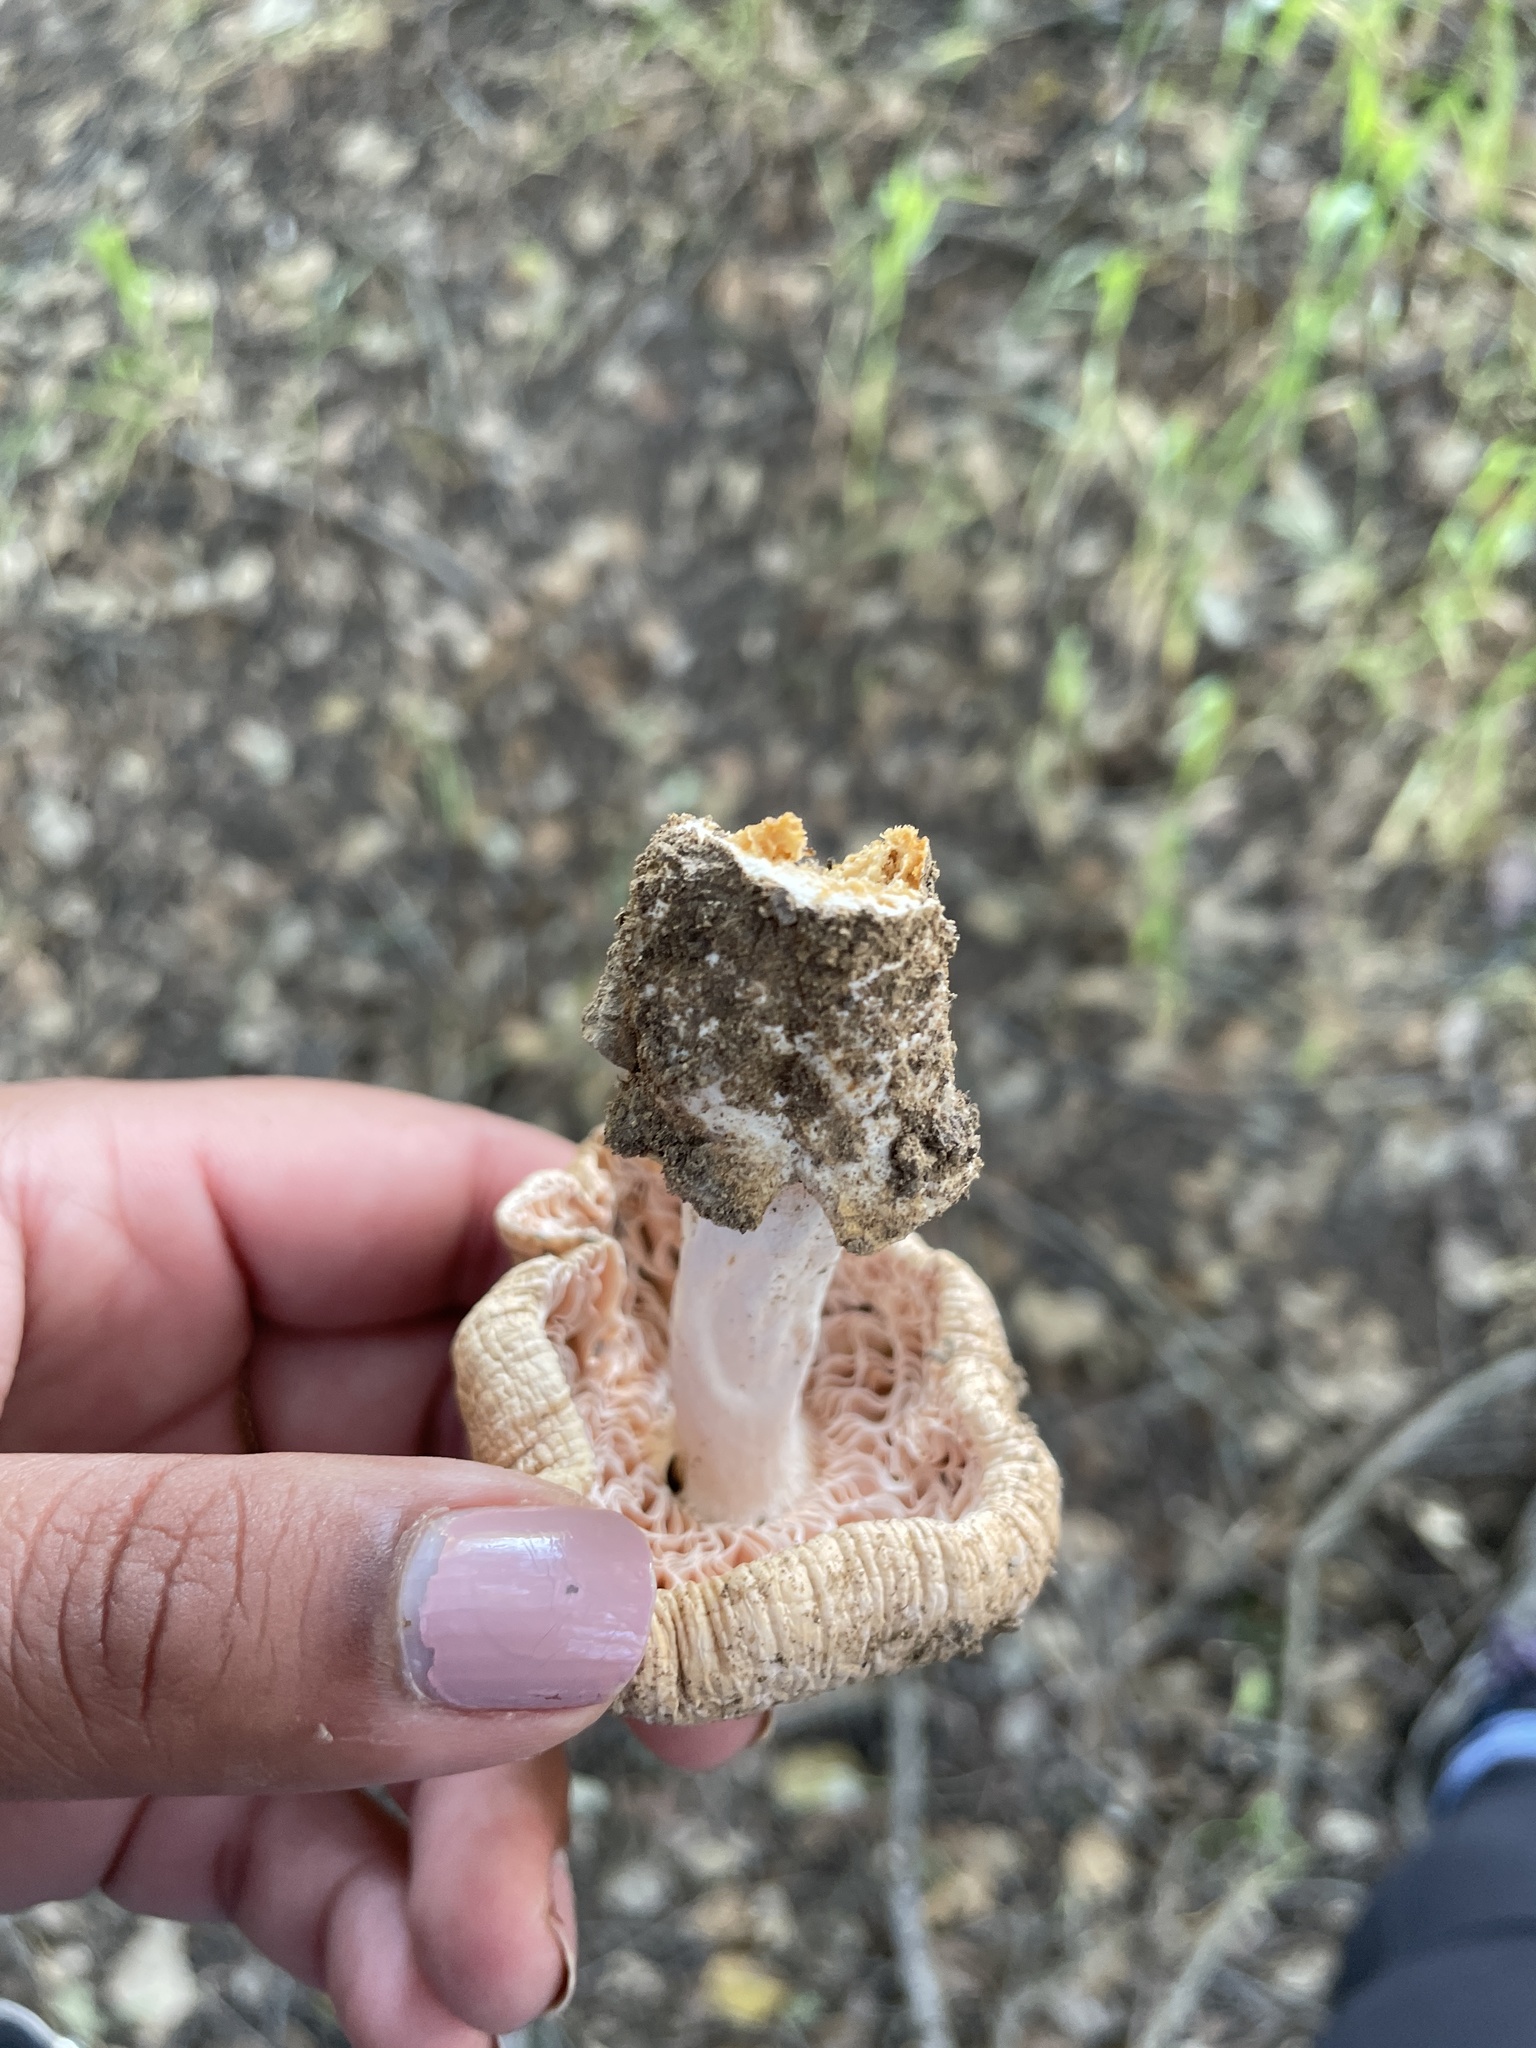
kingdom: Fungi
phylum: Basidiomycota
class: Agaricomycetes
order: Agaricales
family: Amanitaceae
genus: Amanita
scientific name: Amanita velosa
